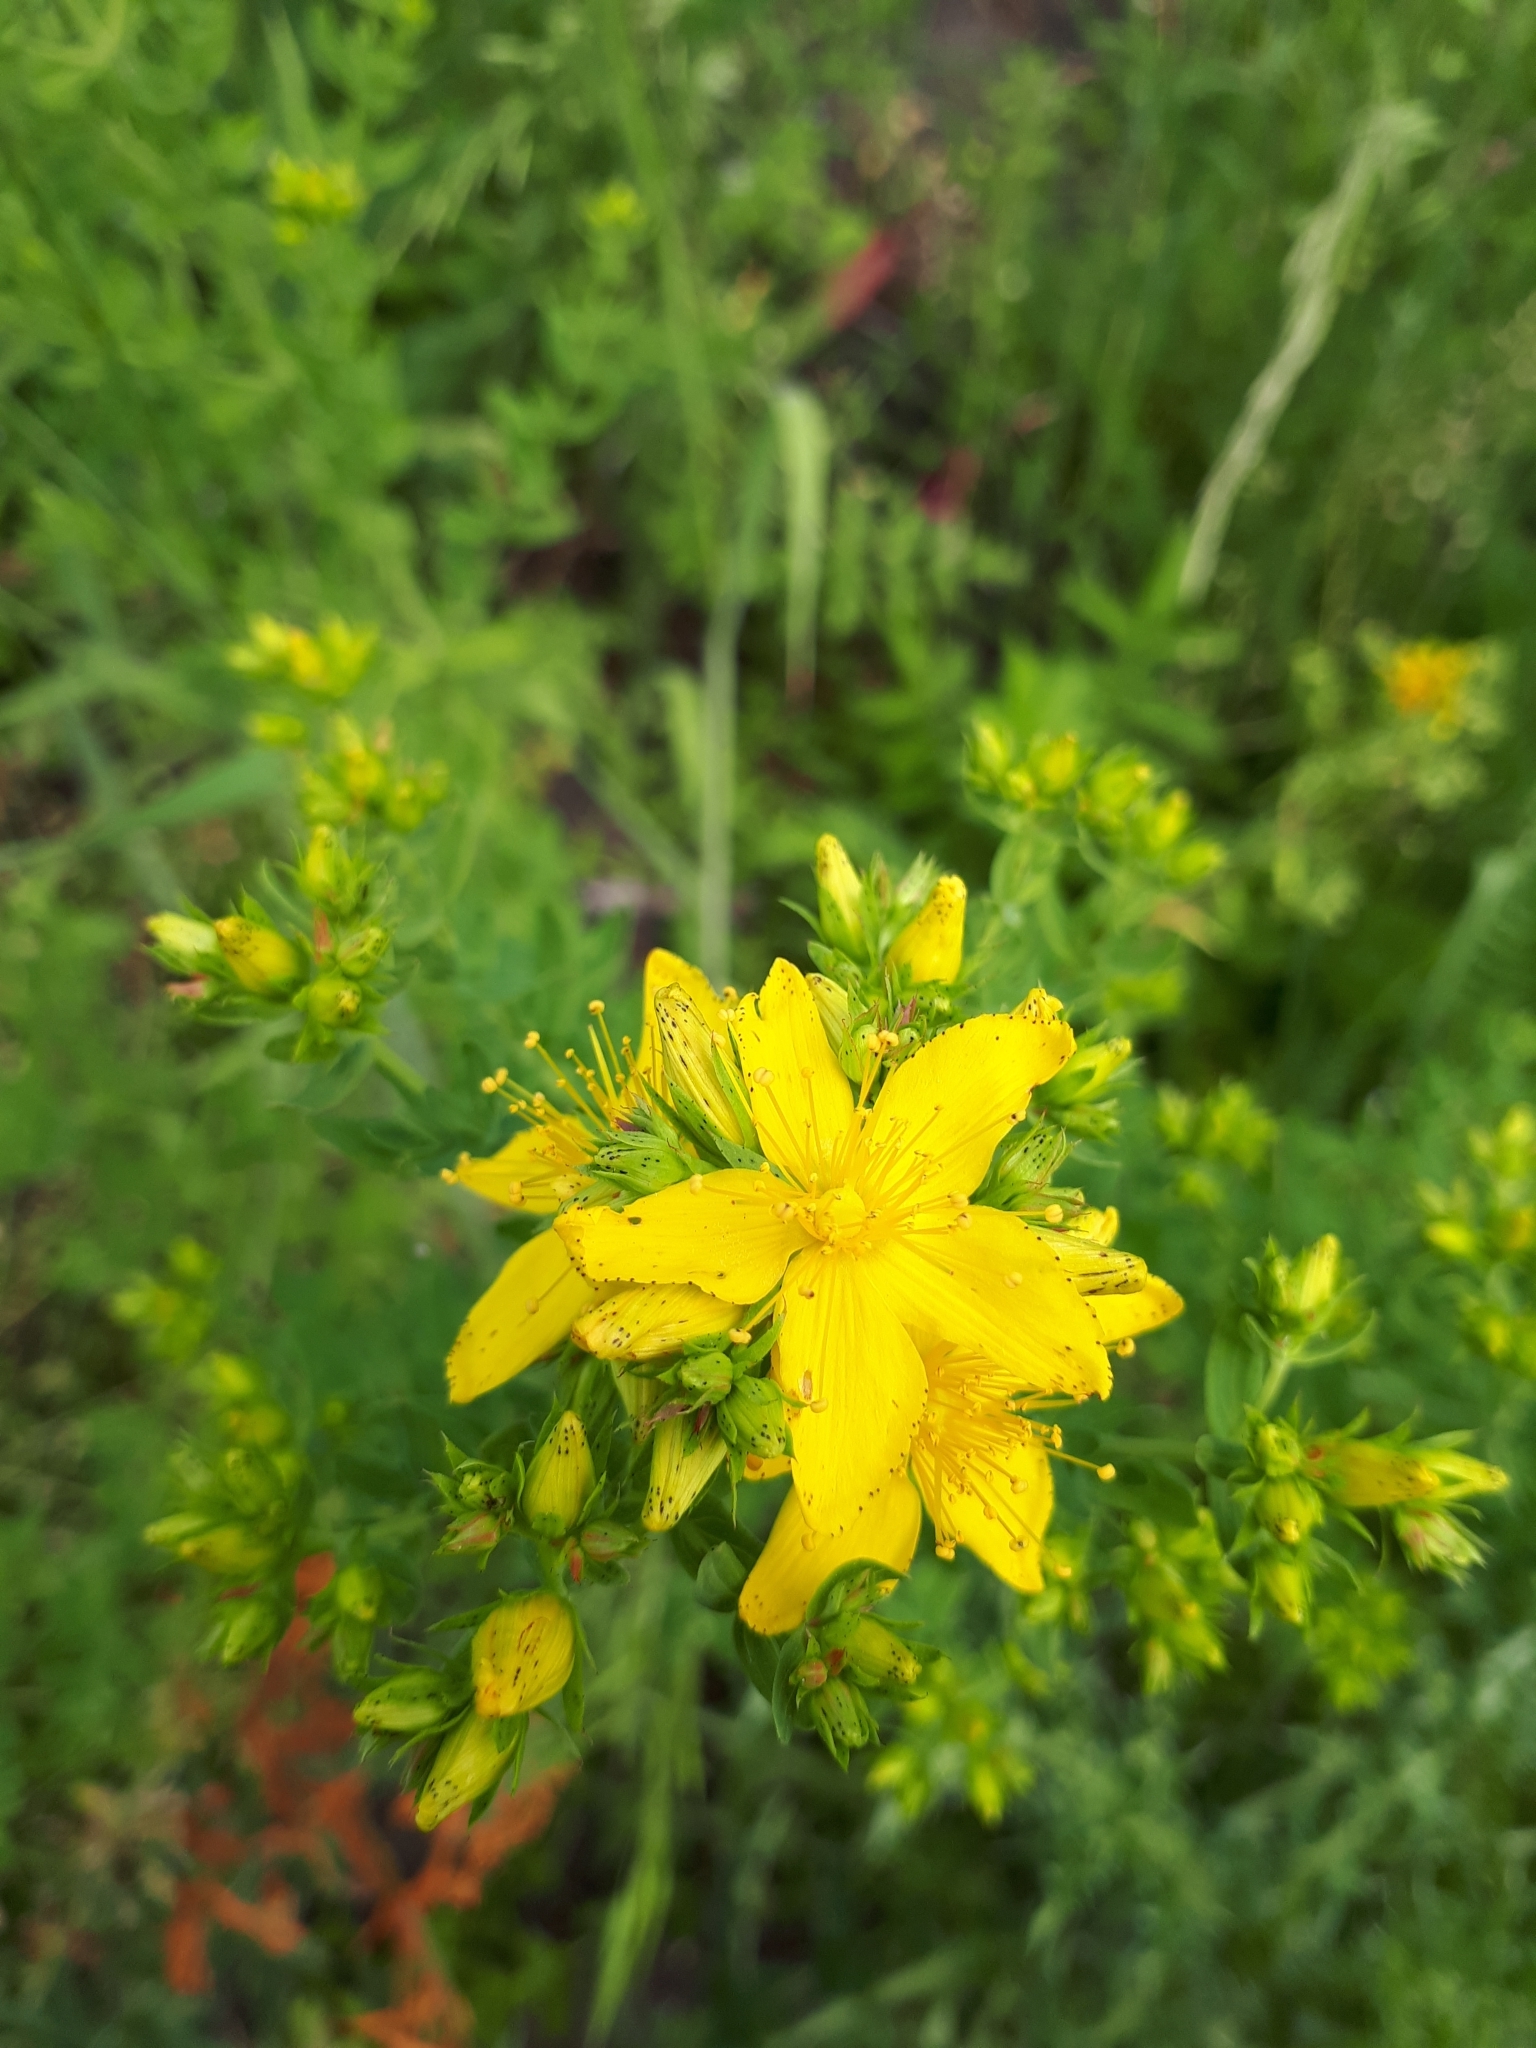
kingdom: Plantae
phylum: Tracheophyta
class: Magnoliopsida
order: Malpighiales
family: Hypericaceae
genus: Hypericum
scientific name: Hypericum perforatum
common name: Common st. johnswort
